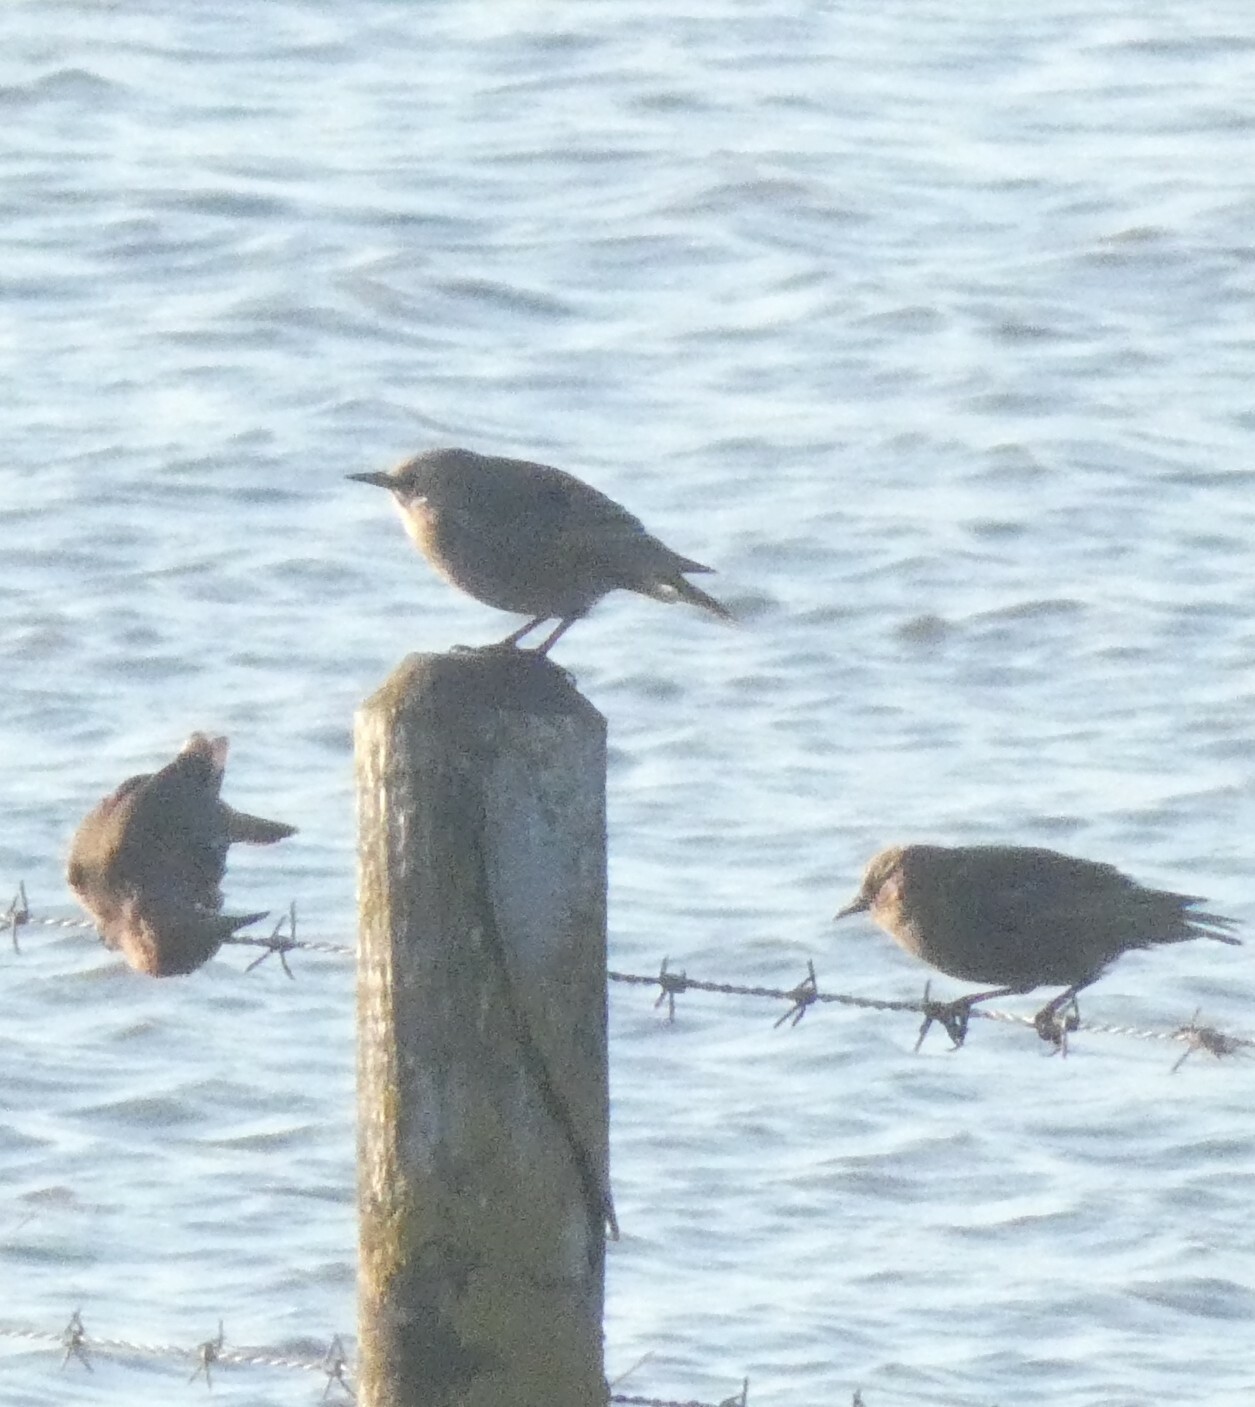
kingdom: Animalia
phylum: Chordata
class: Aves
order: Passeriformes
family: Sturnidae
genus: Sturnus
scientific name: Sturnus vulgaris
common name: Common starling
